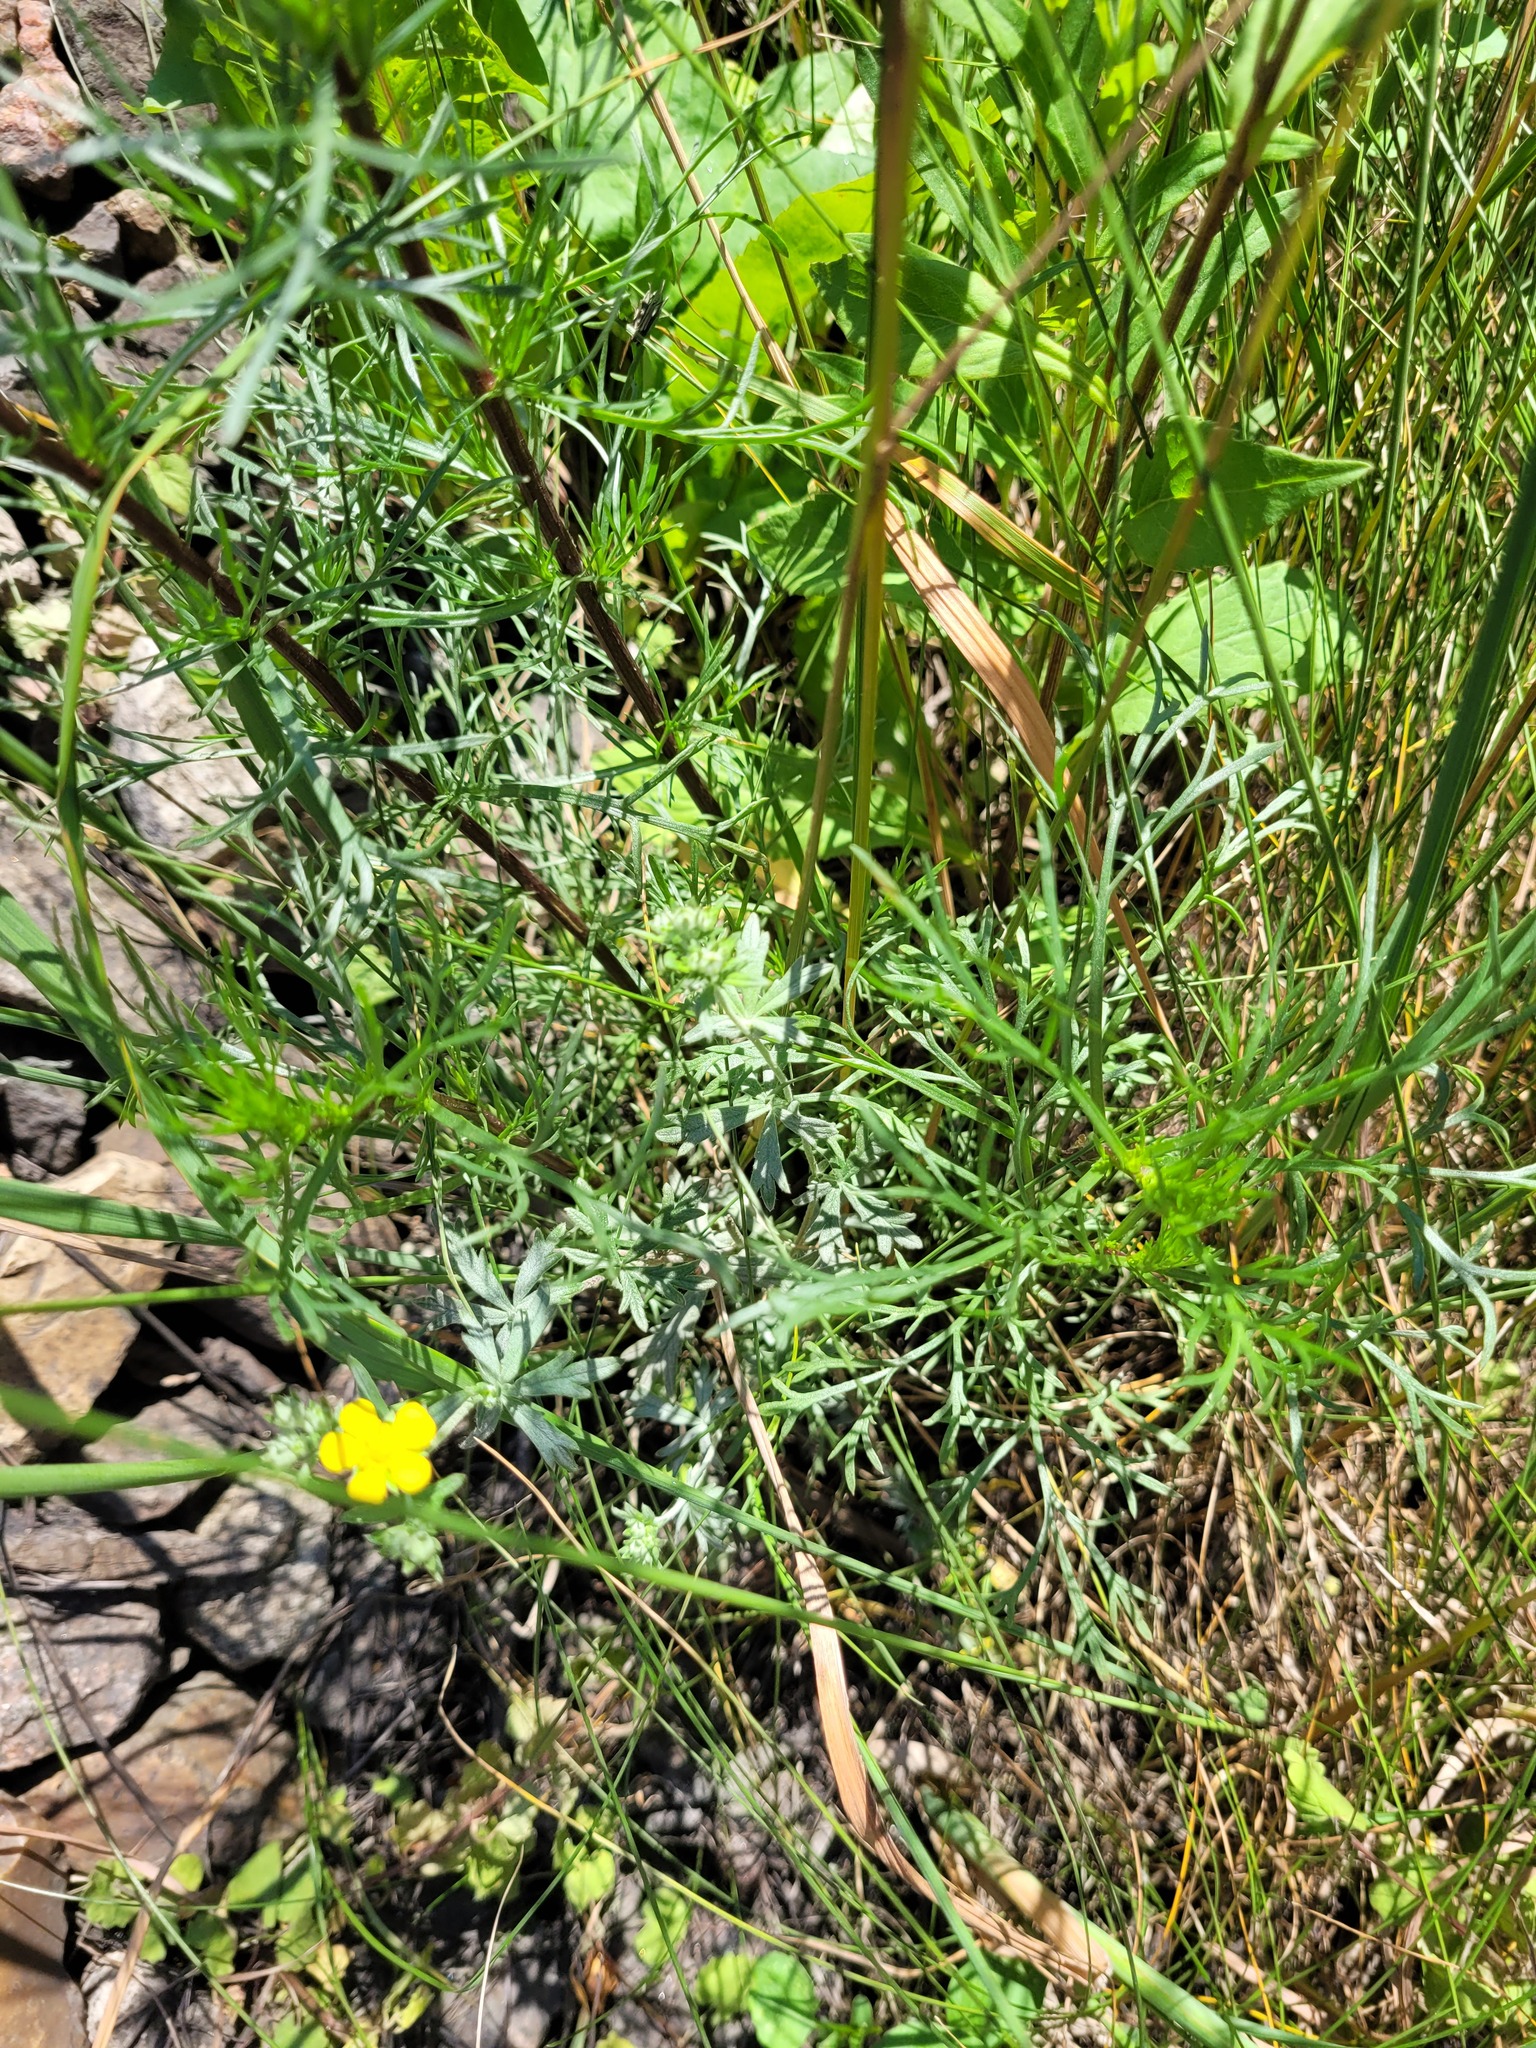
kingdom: Plantae
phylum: Tracheophyta
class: Magnoliopsida
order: Rosales
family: Rosaceae
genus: Potentilla
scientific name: Potentilla argentea
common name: Hoary cinquefoil
